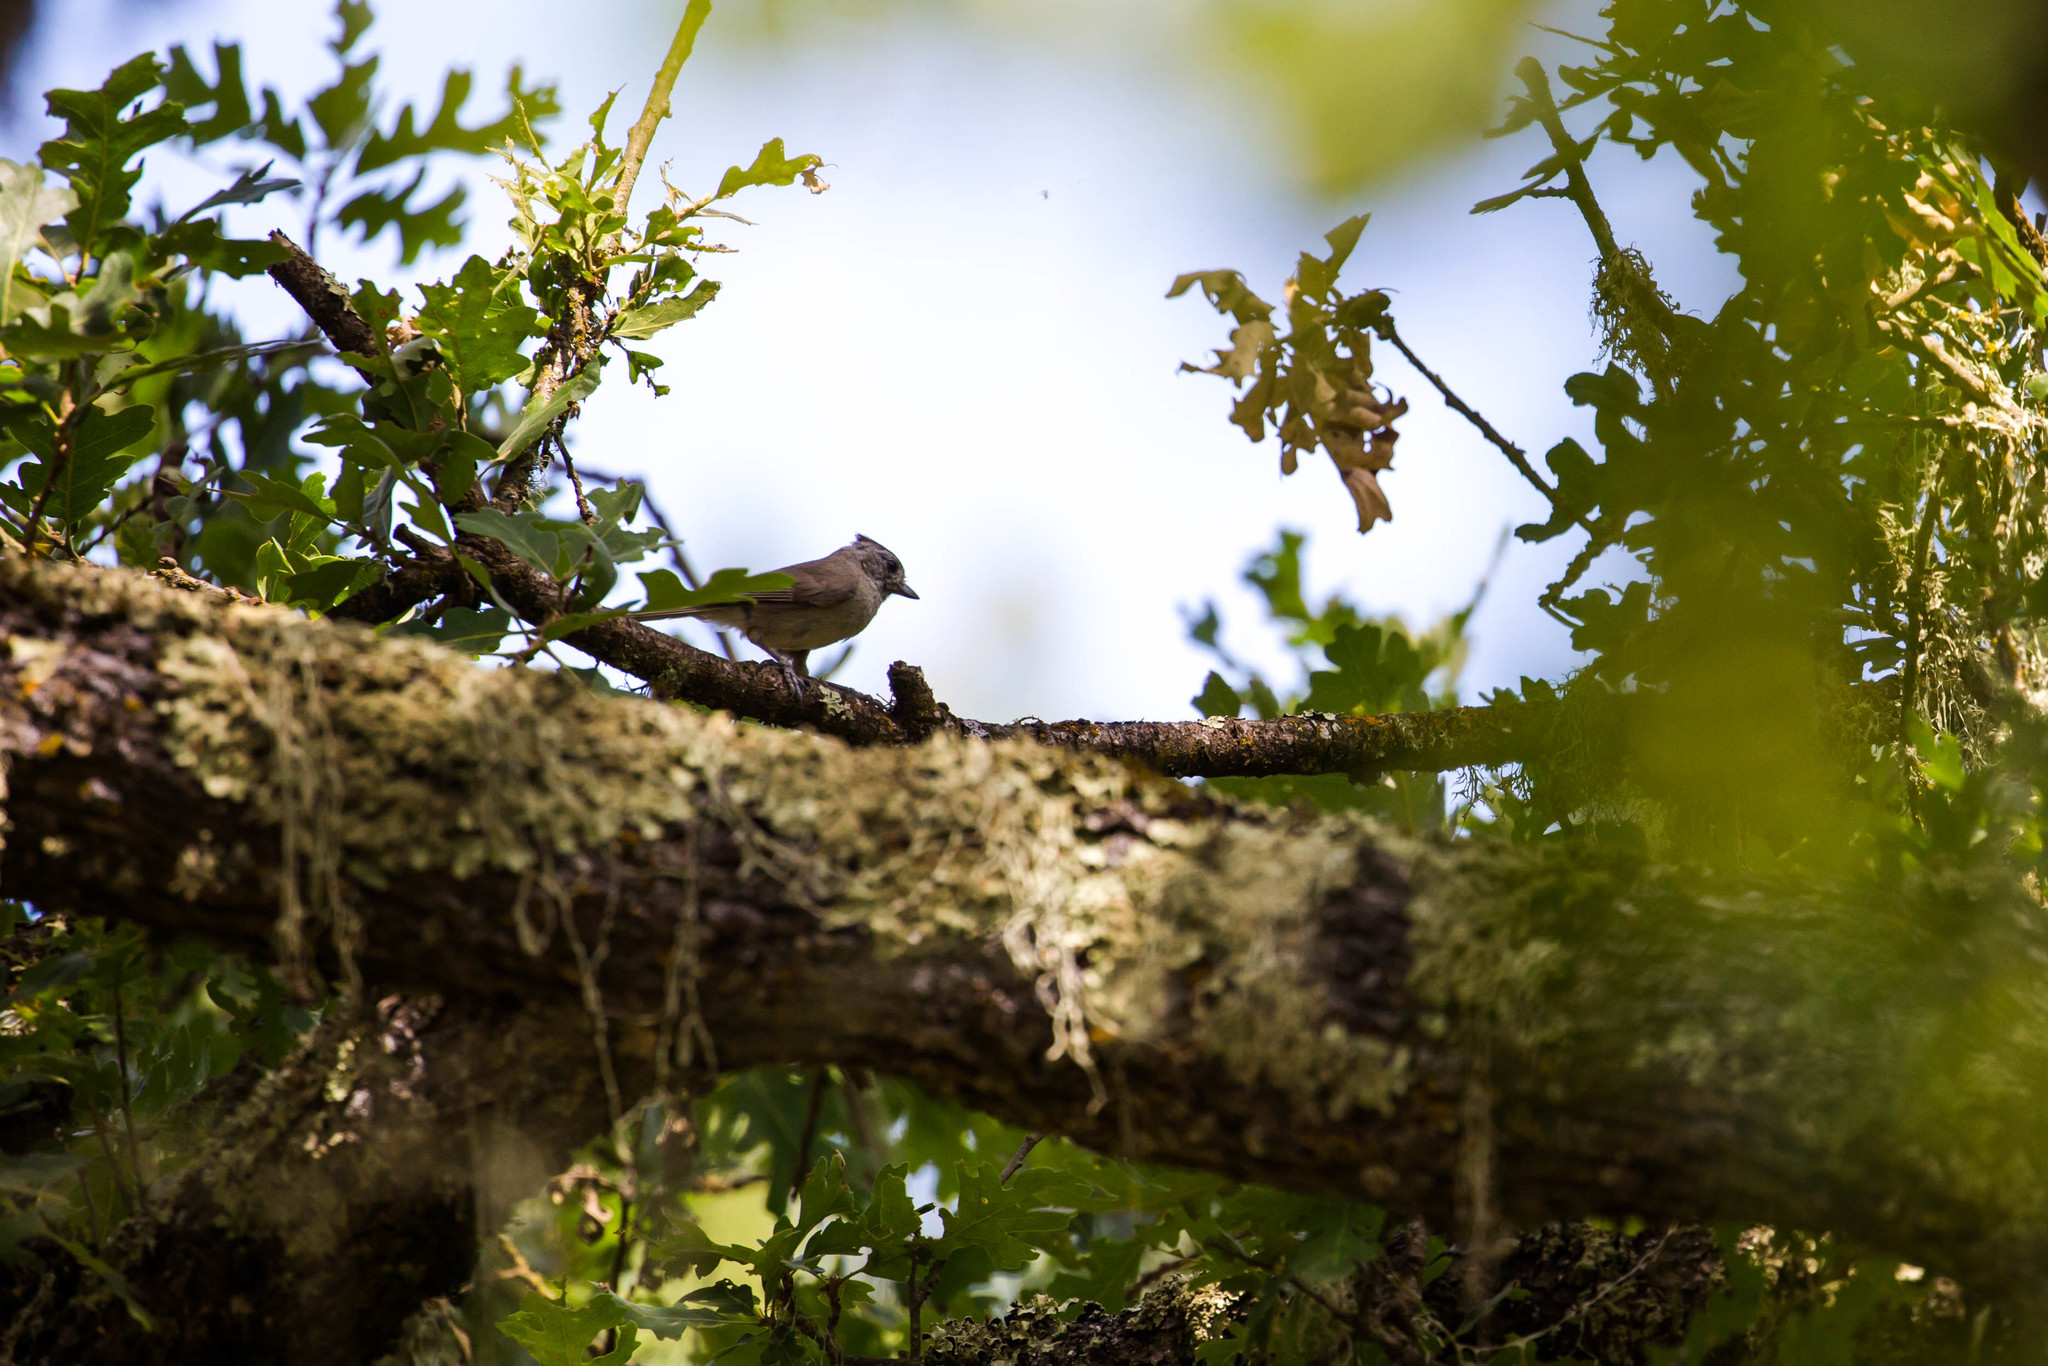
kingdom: Animalia
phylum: Chordata
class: Aves
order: Passeriformes
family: Paridae
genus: Baeolophus
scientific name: Baeolophus inornatus
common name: Oak titmouse
